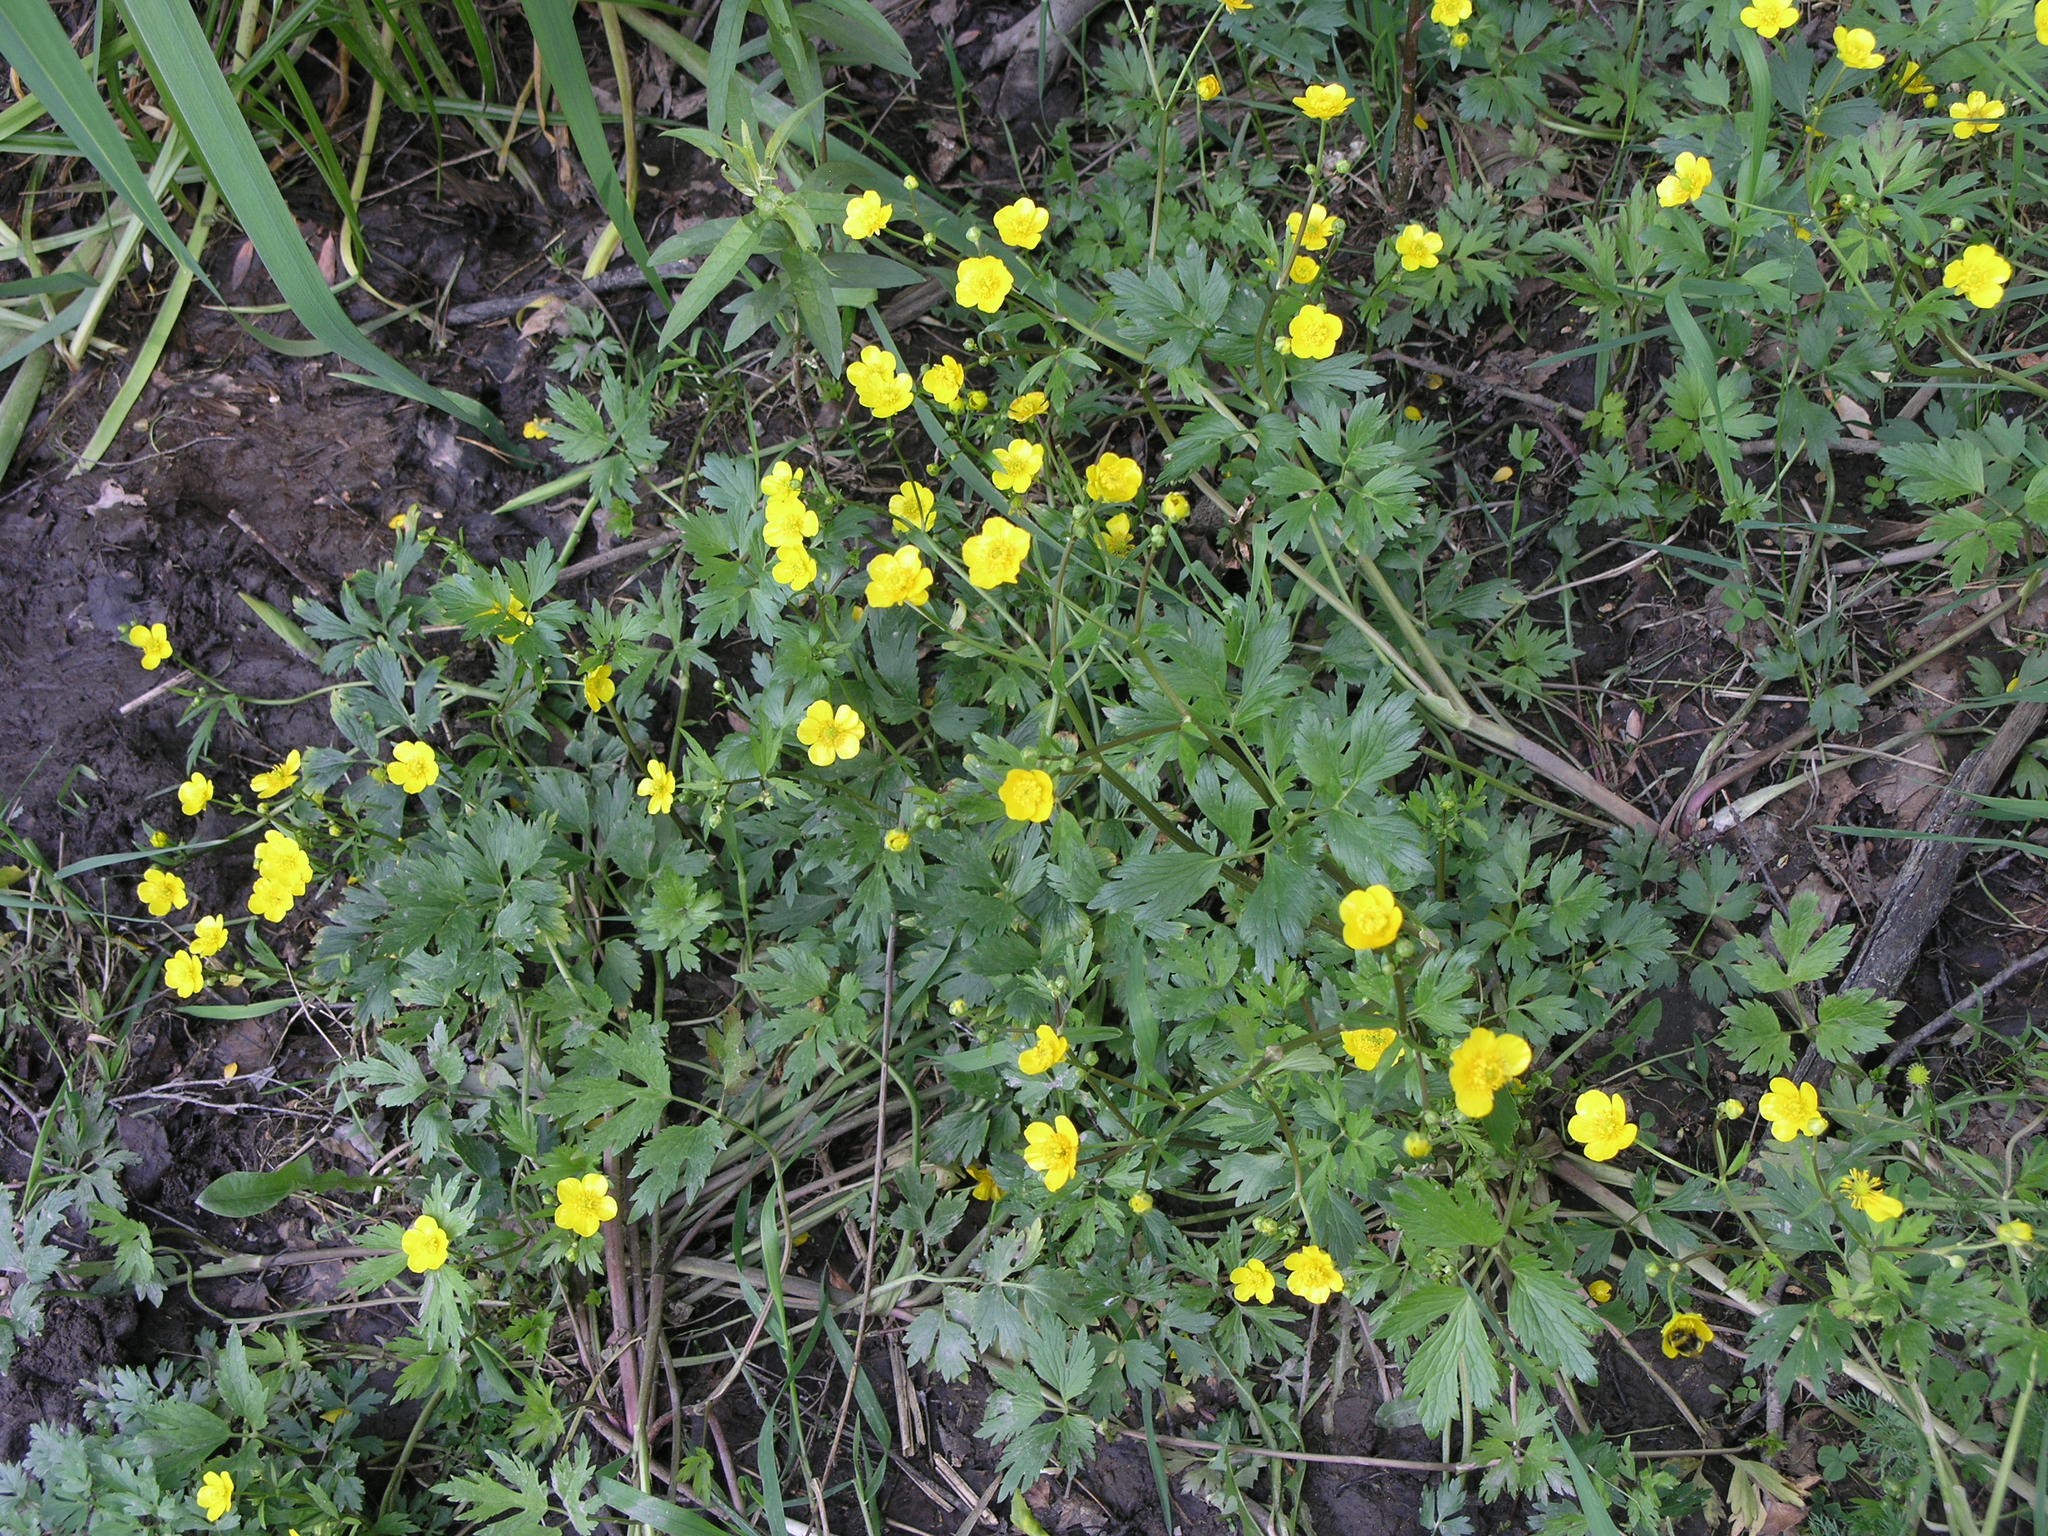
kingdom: Plantae
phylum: Tracheophyta
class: Magnoliopsida
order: Ranunculales
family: Ranunculaceae
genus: Ranunculus
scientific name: Ranunculus repens
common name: Creeping buttercup
